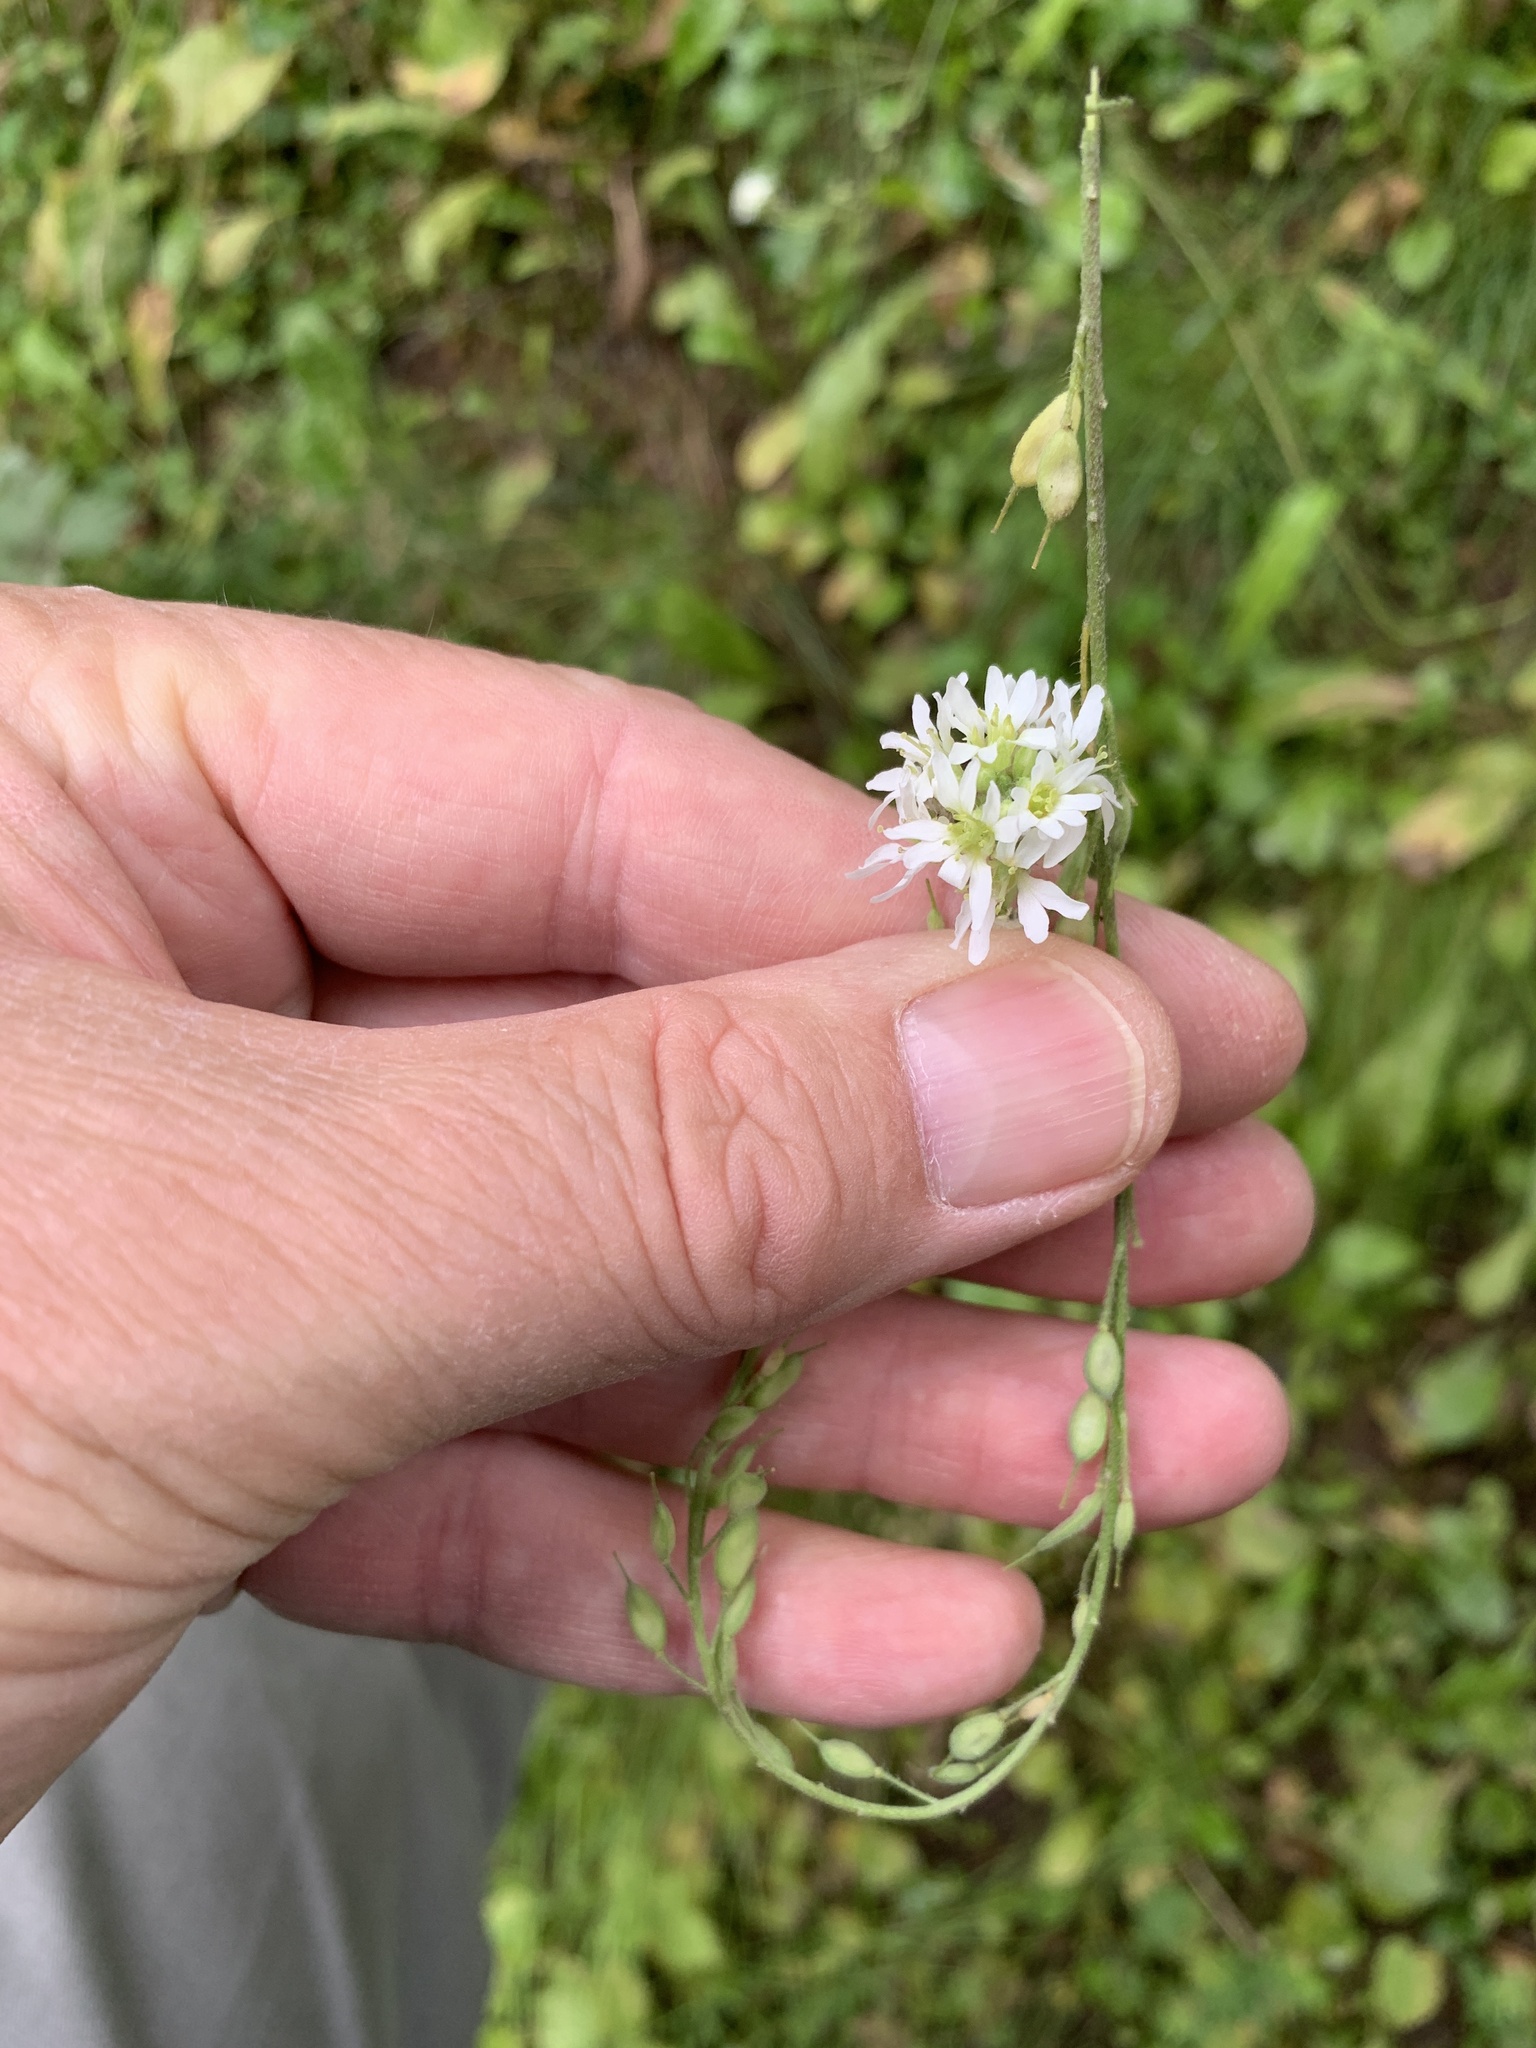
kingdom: Plantae
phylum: Tracheophyta
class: Magnoliopsida
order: Brassicales
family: Brassicaceae
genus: Berteroa
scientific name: Berteroa incana
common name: Hoary alison
